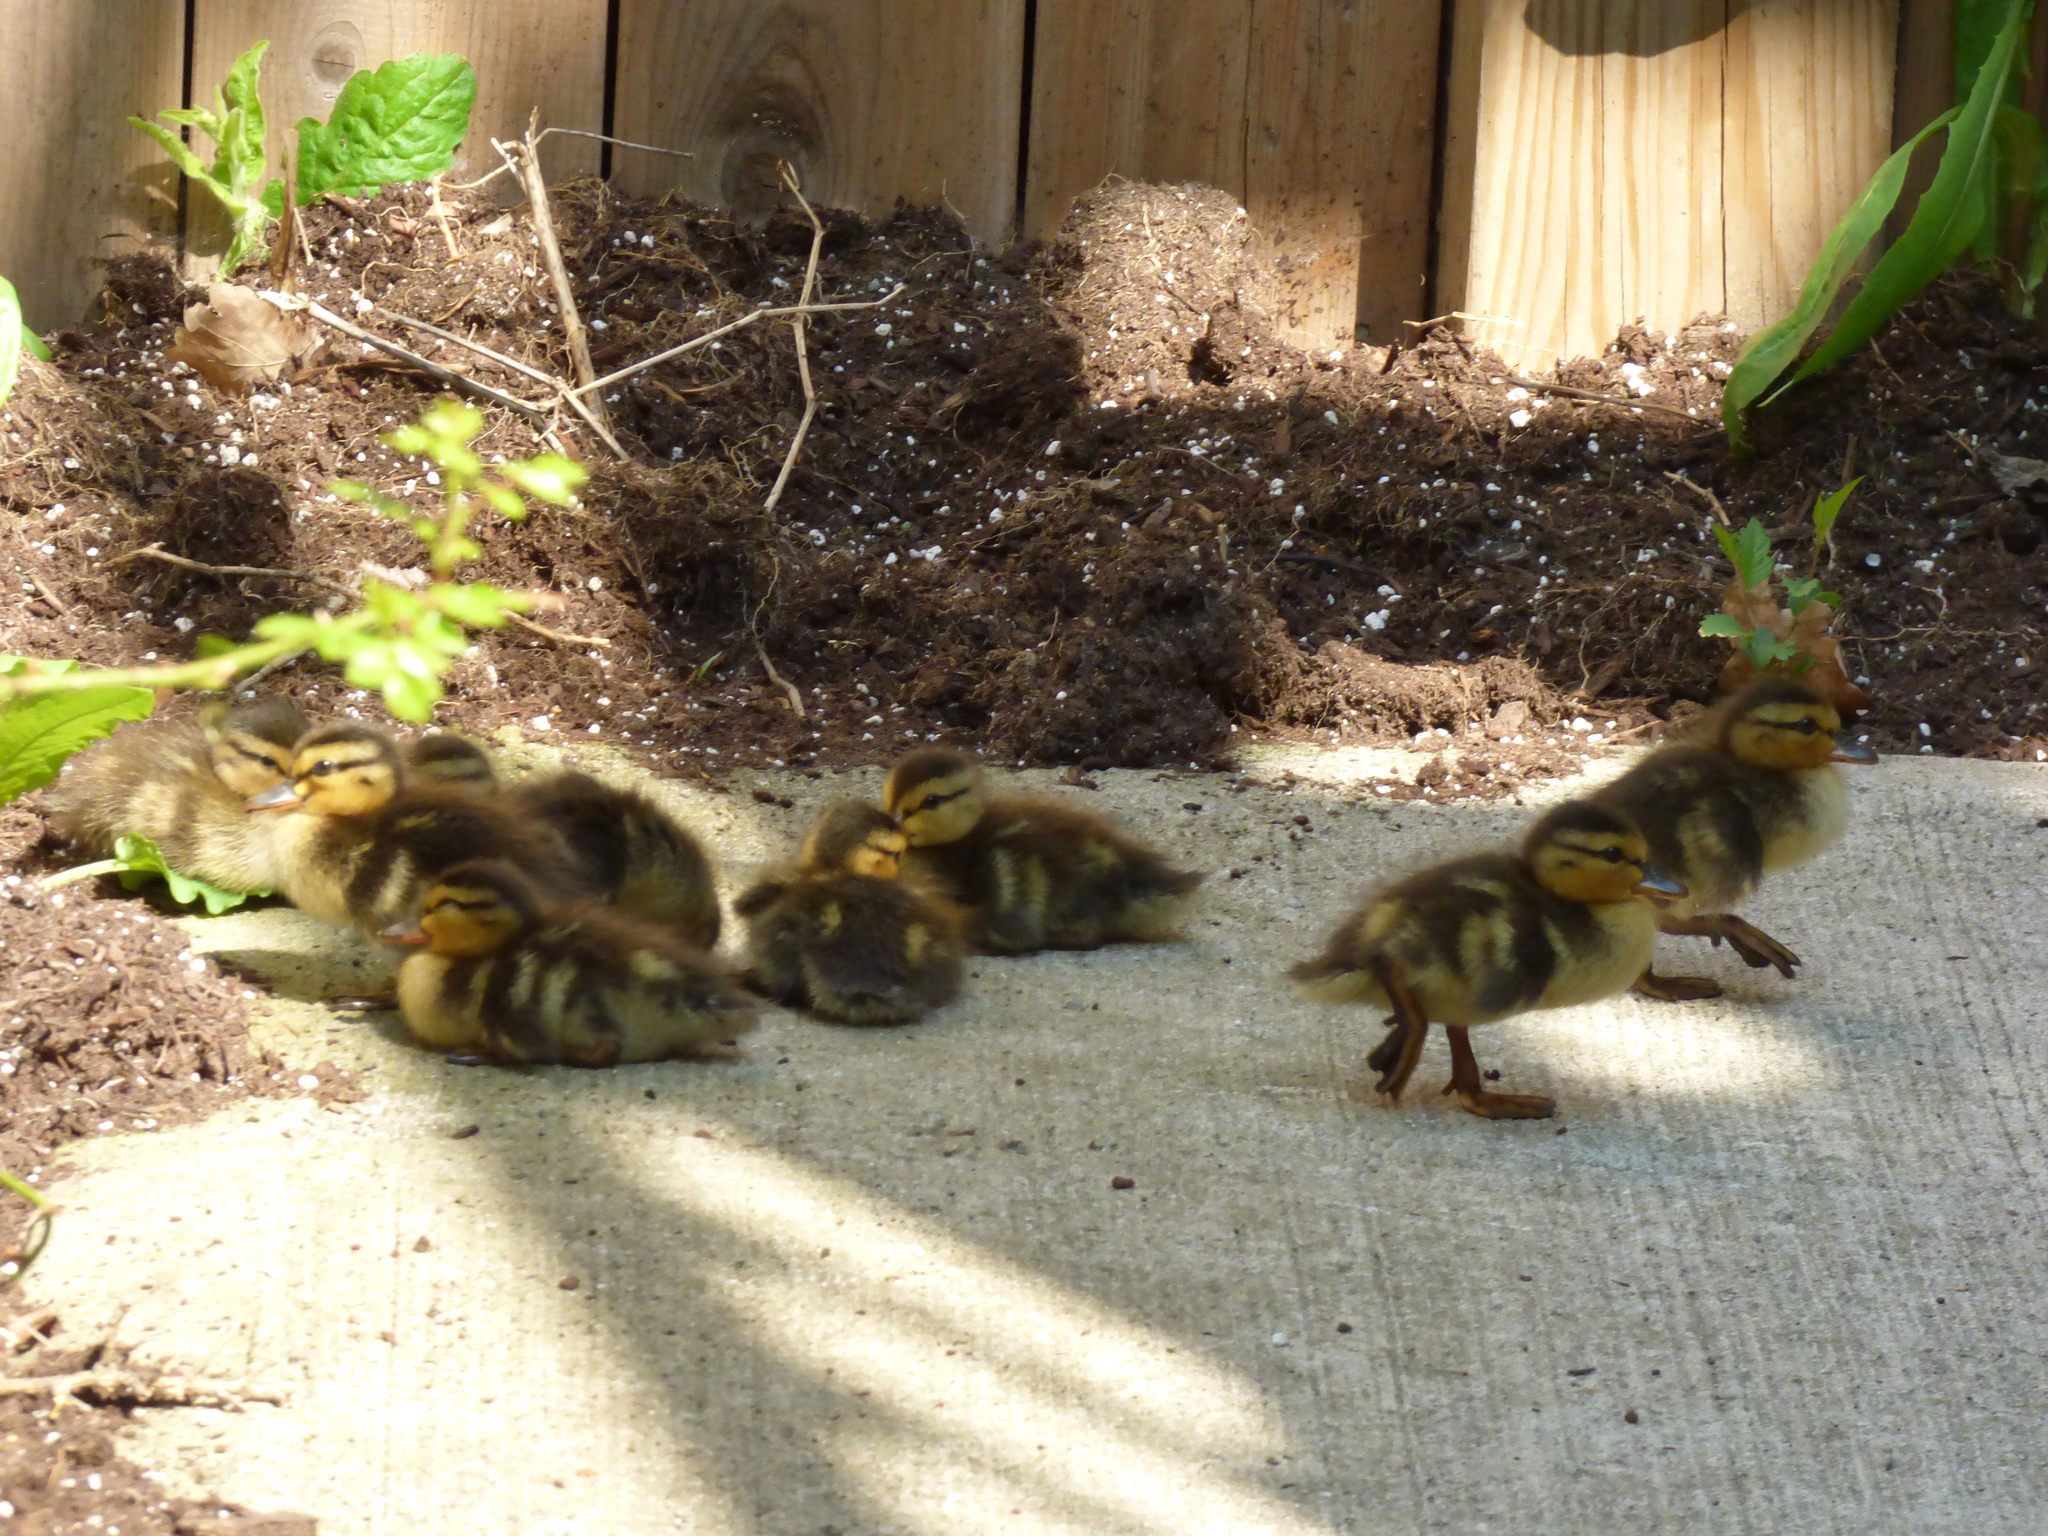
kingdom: Animalia
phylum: Chordata
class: Aves
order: Anseriformes
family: Anatidae
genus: Anas
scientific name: Anas platyrhynchos
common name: Mallard
